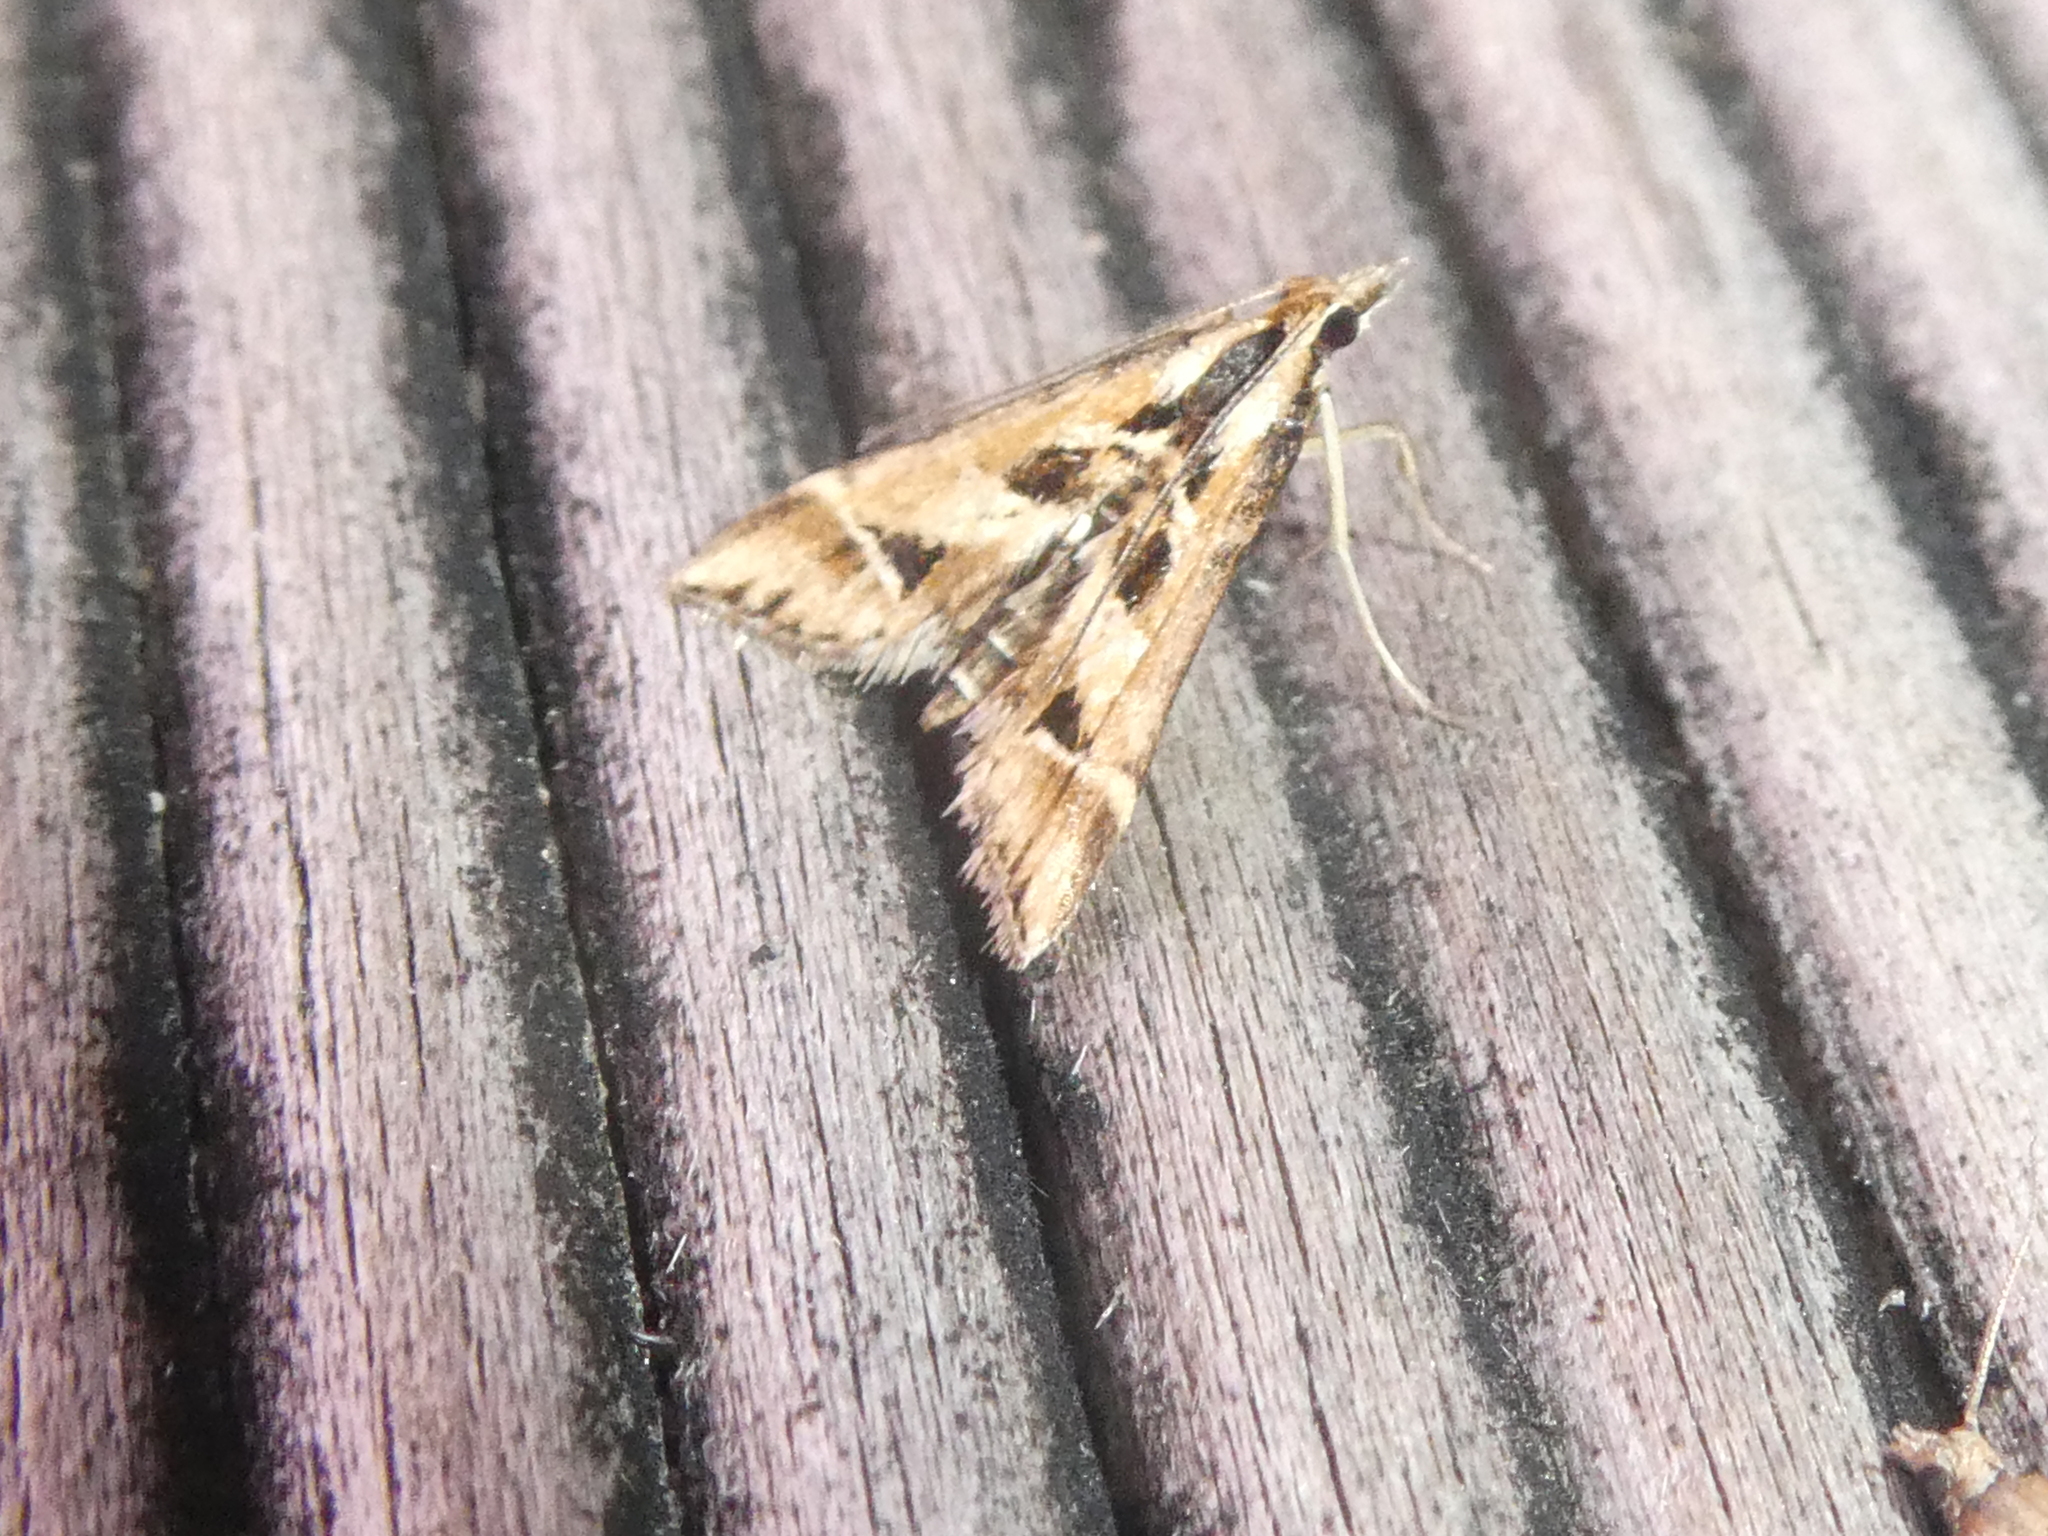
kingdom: Animalia
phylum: Arthropoda
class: Insecta
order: Lepidoptera
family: Crambidae
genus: Diasemia
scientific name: Diasemia grammalis
